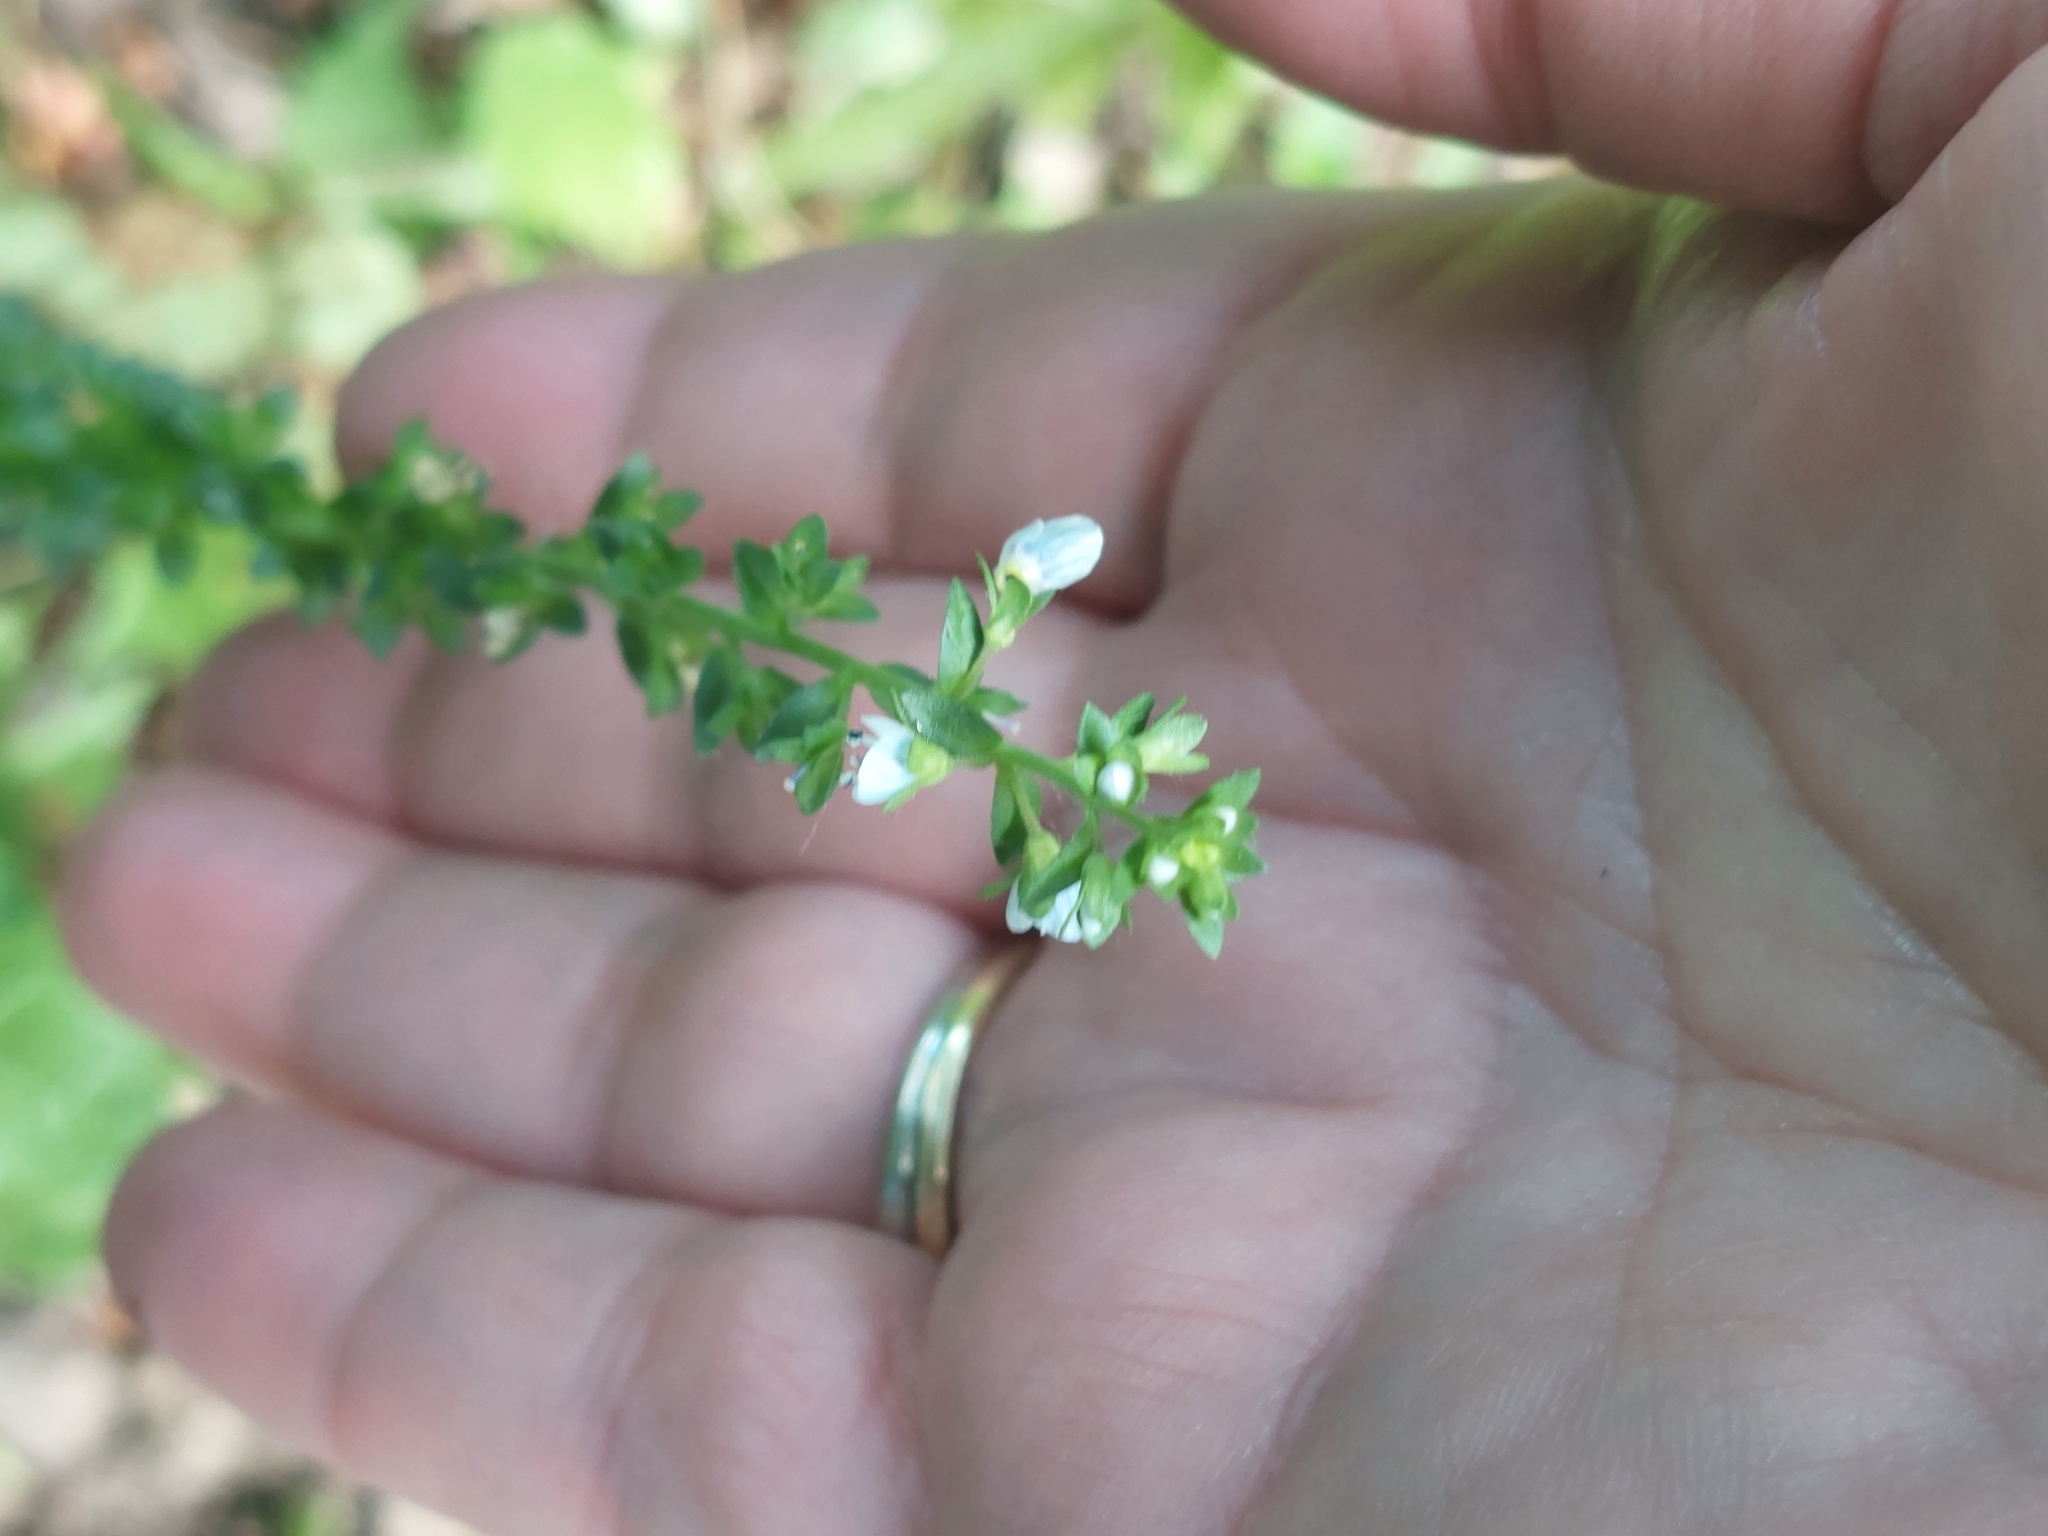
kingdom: Plantae
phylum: Tracheophyta
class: Magnoliopsida
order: Lamiales
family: Plantaginaceae
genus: Veronica
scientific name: Veronica serpyllifolia
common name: Thyme-leaved speedwell
